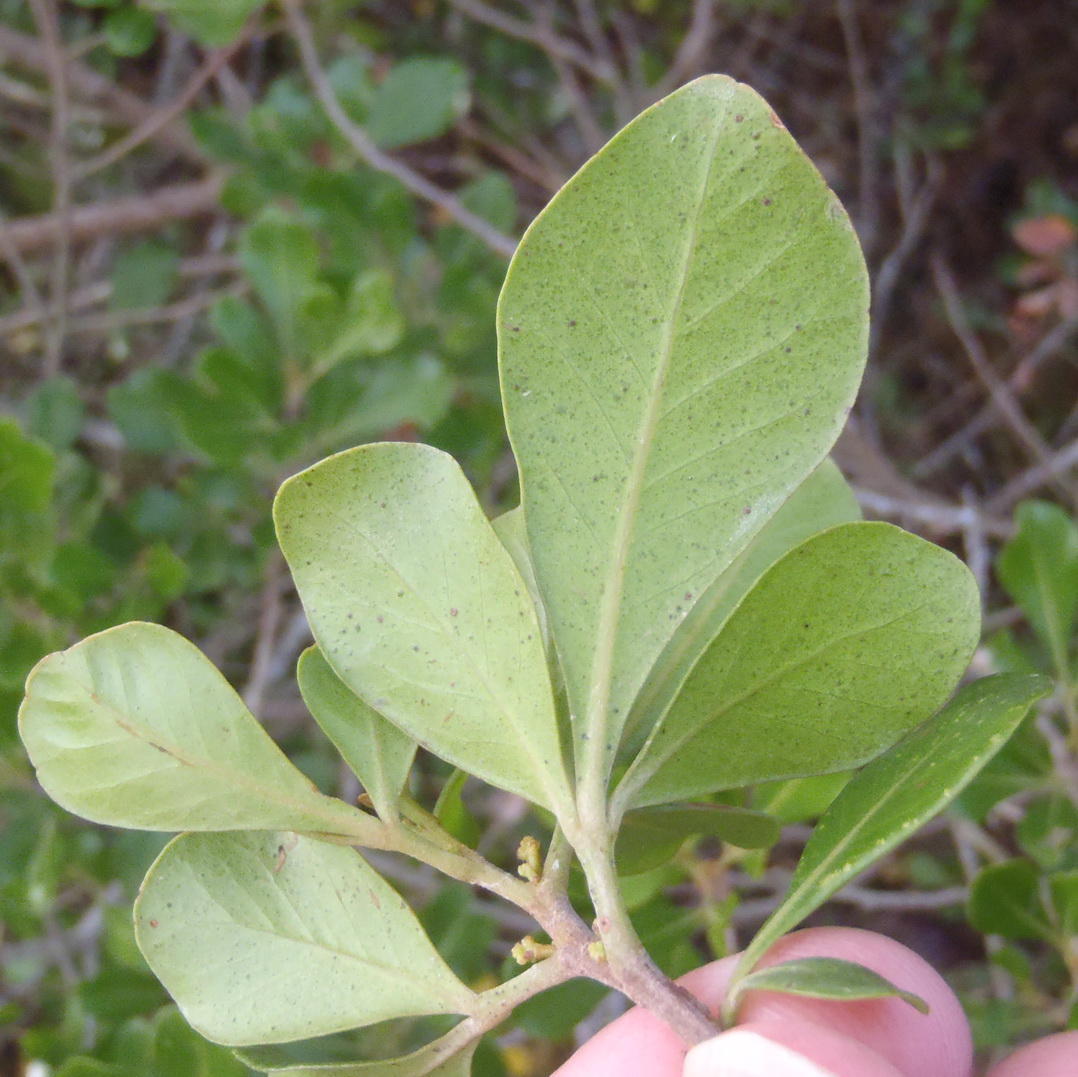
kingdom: Plantae
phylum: Tracheophyta
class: Magnoliopsida
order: Sapindales
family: Anacardiaceae
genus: Searsia
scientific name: Searsia lucida
